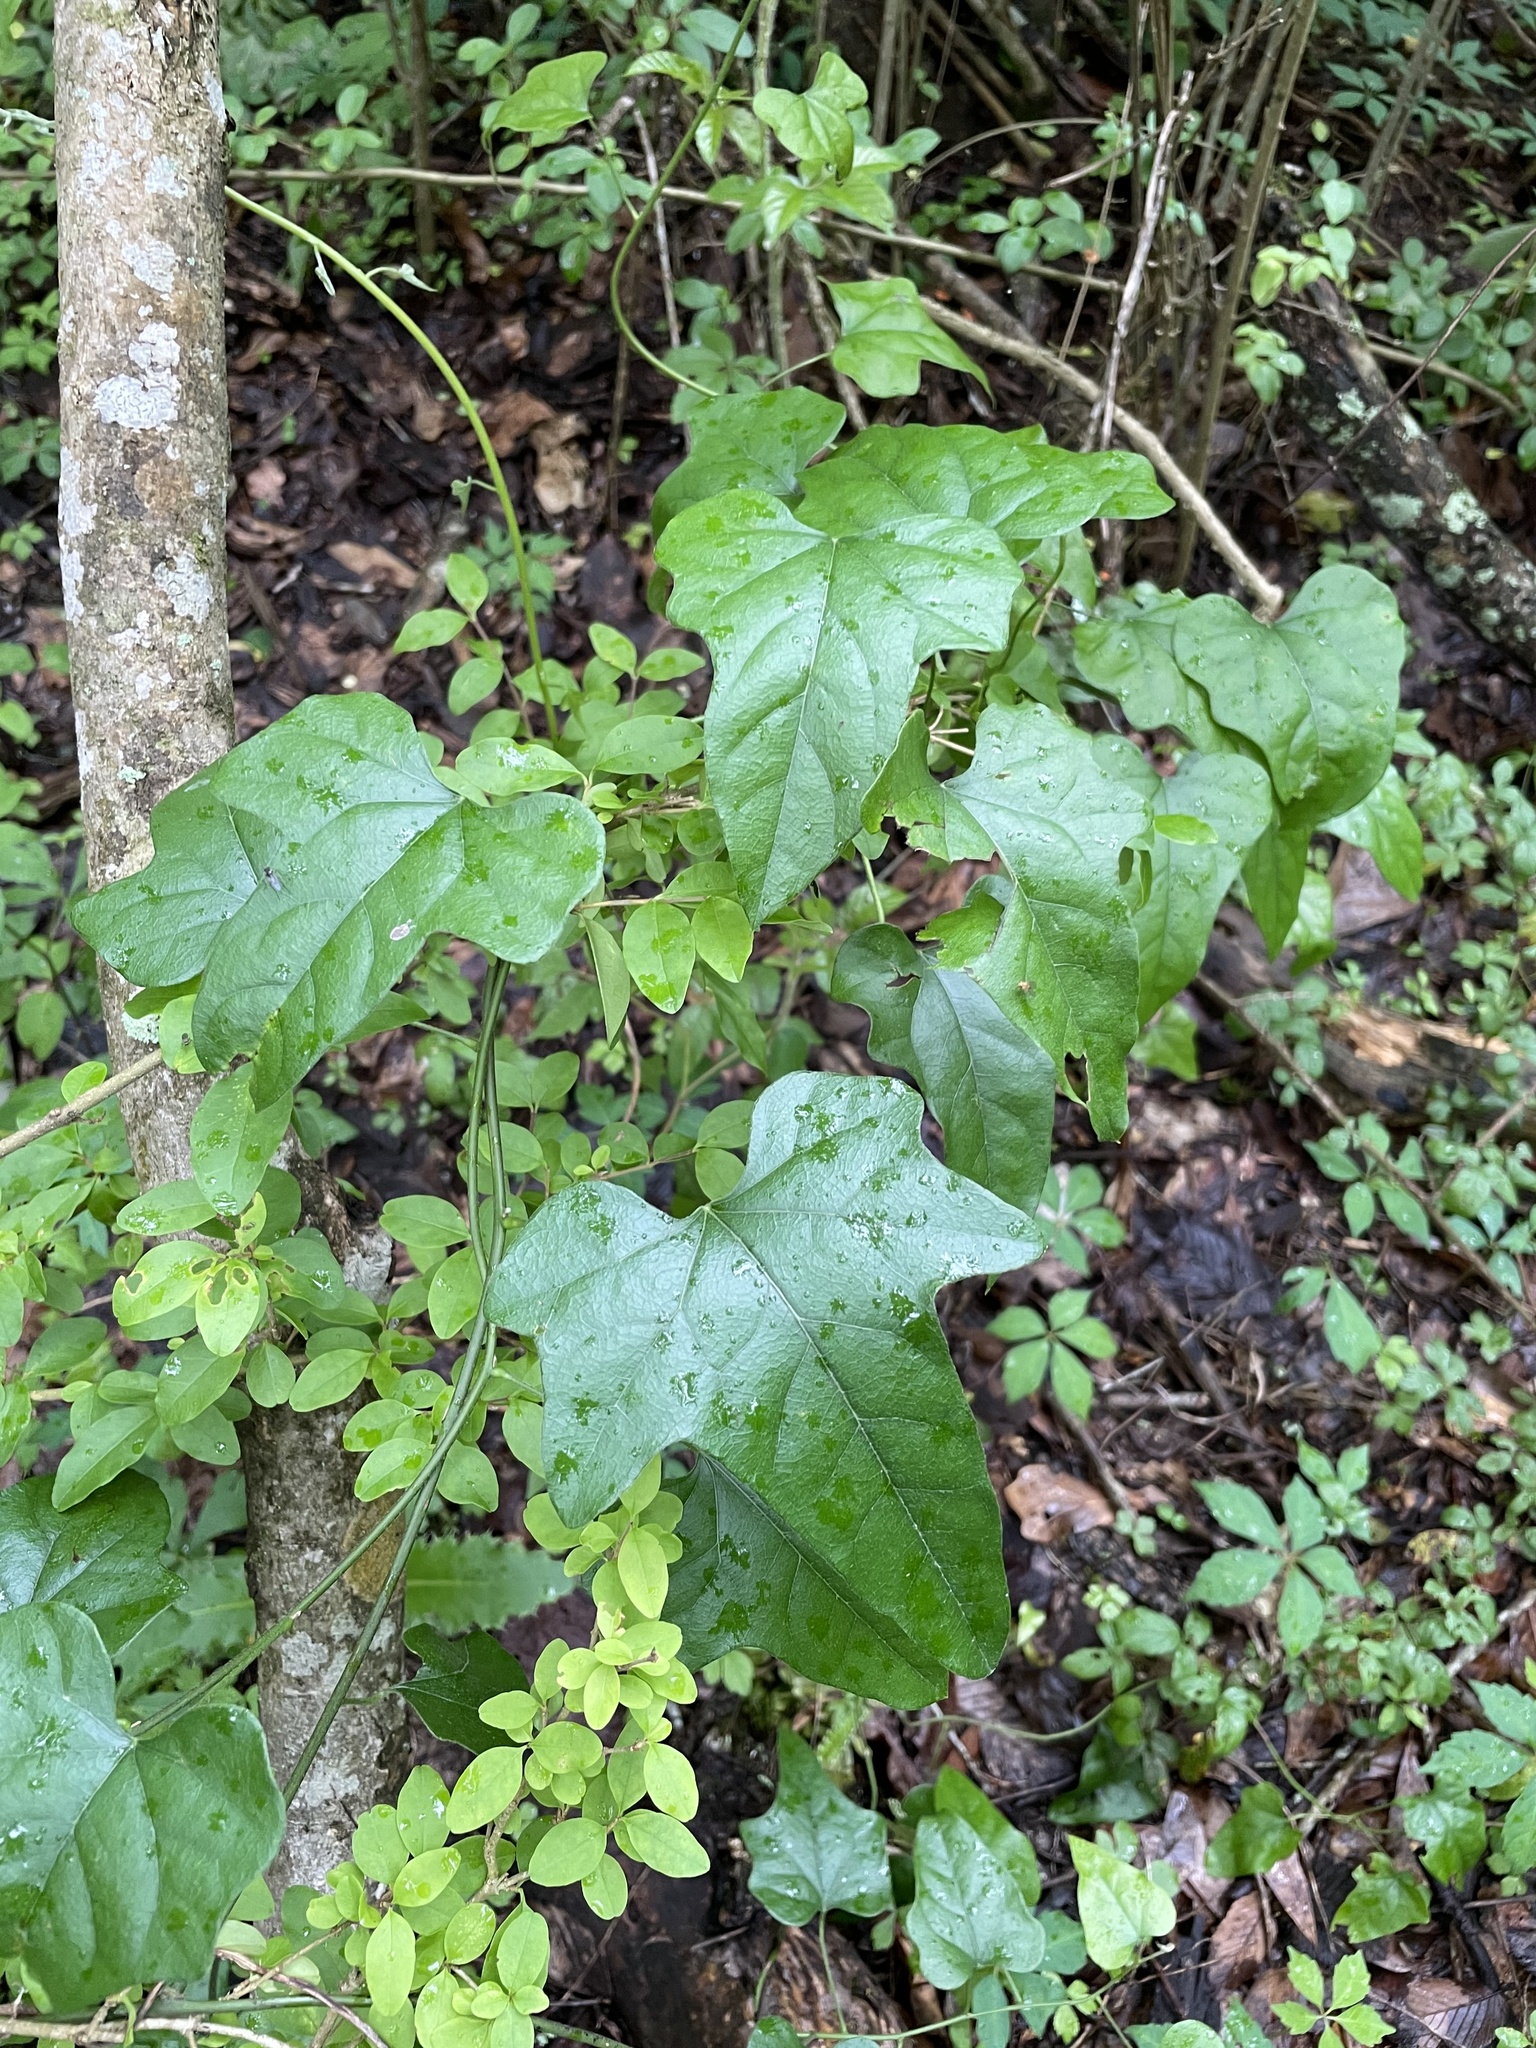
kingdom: Plantae
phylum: Tracheophyta
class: Magnoliopsida
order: Ranunculales
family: Menispermaceae
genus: Cocculus
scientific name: Cocculus carolinus
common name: Carolina moonseed
